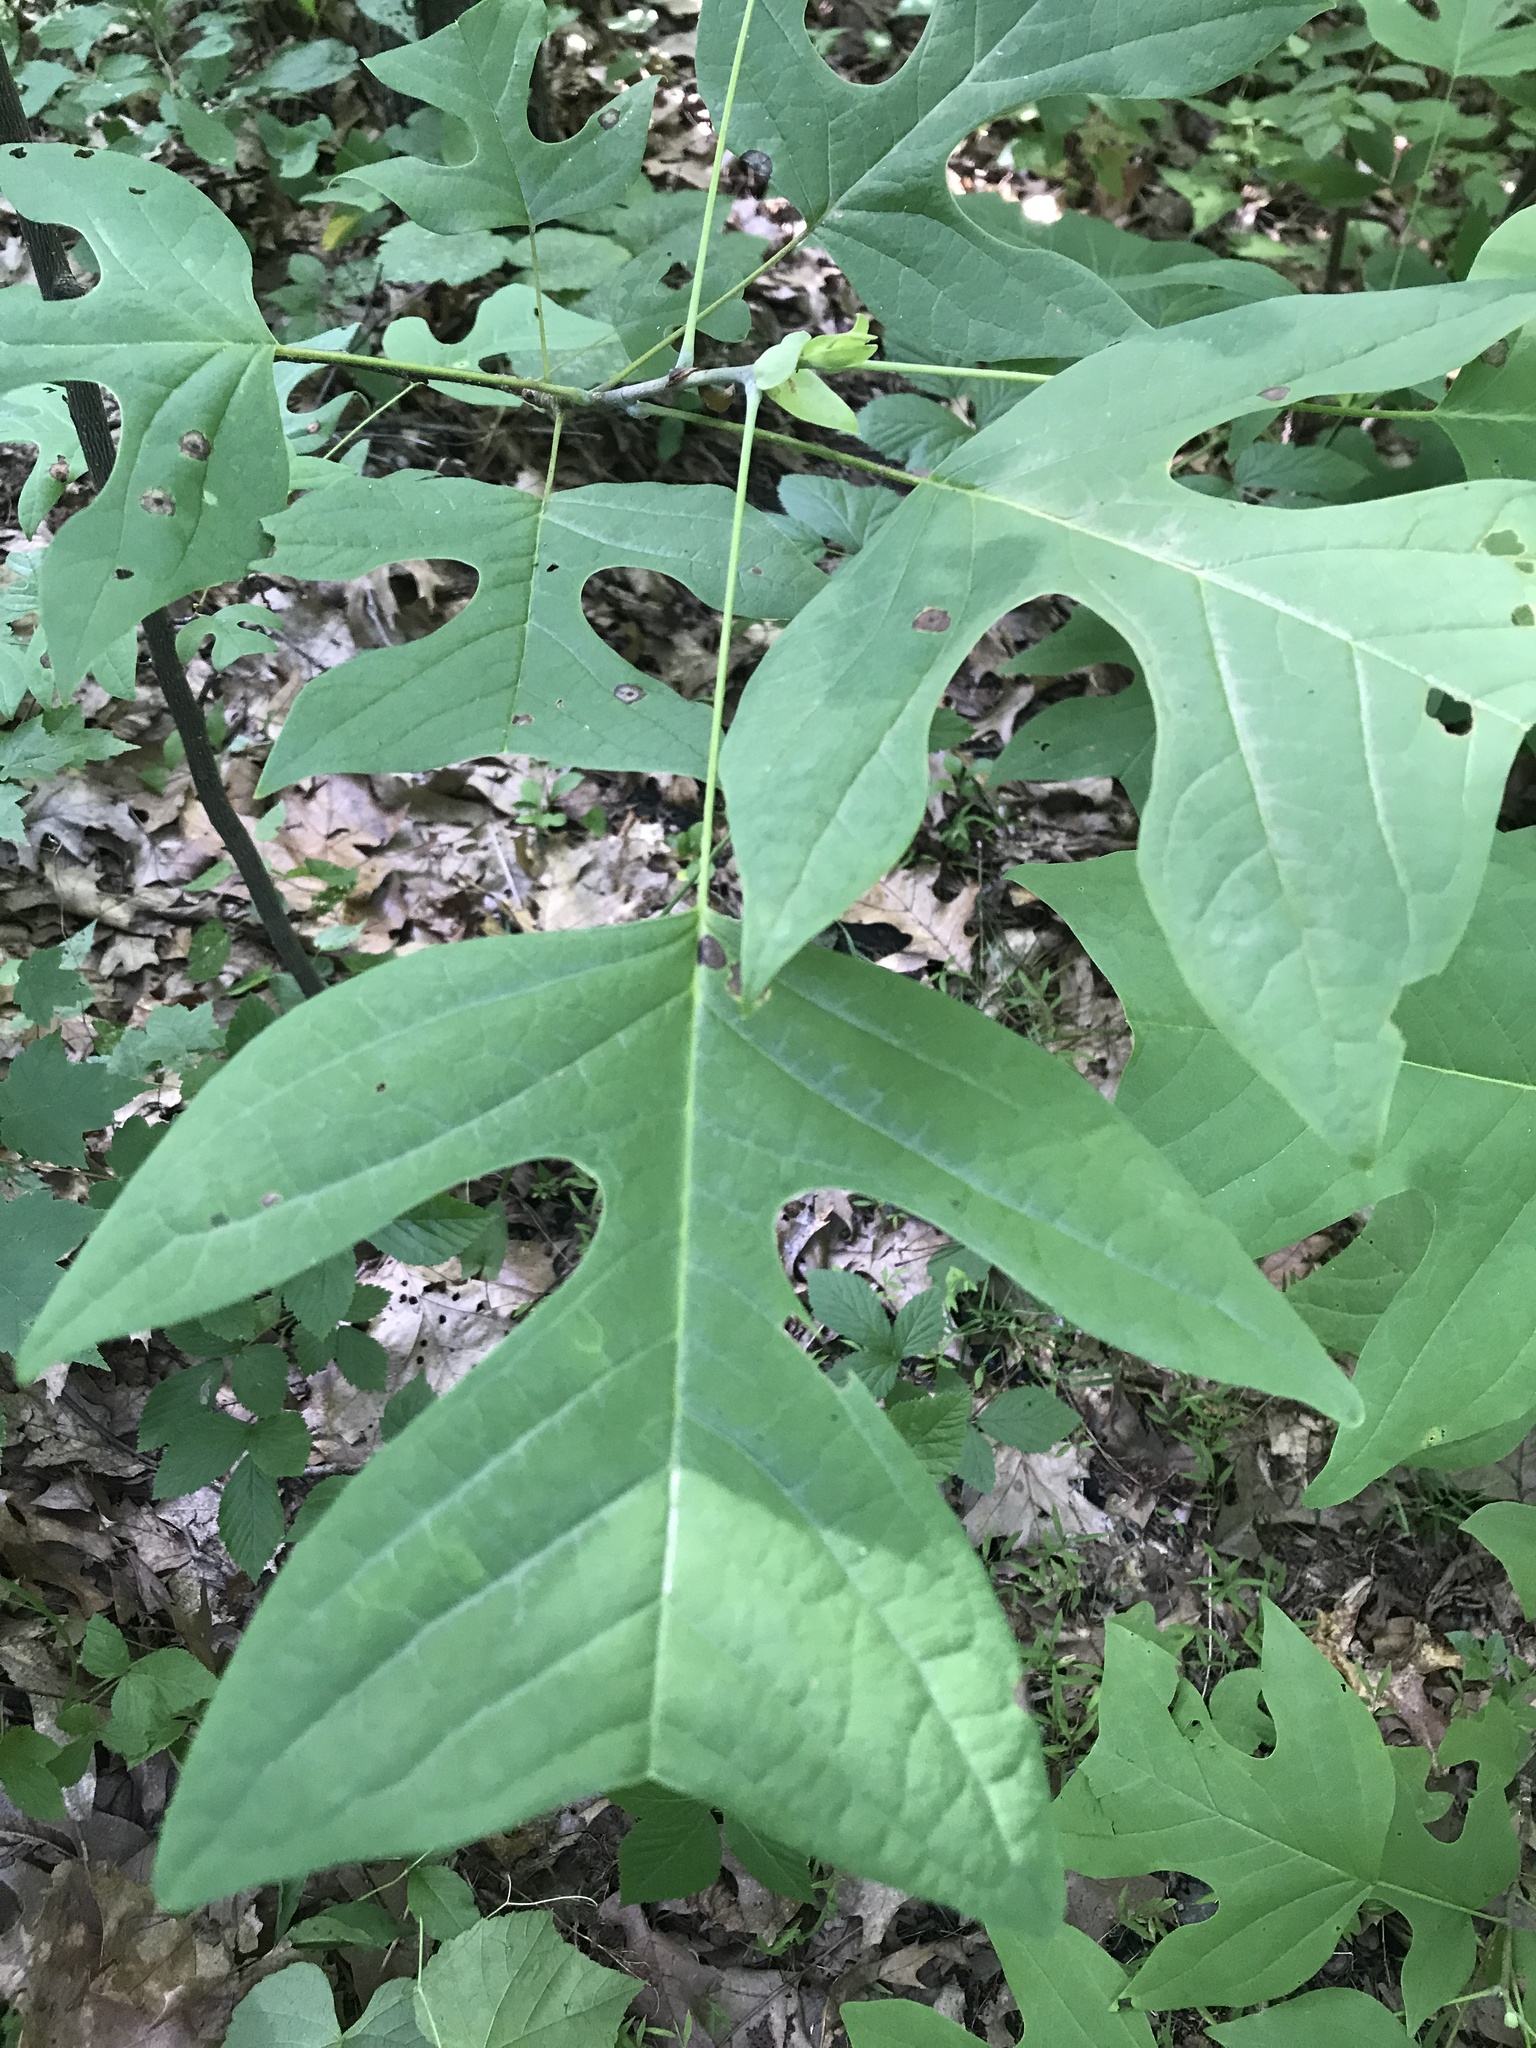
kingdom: Plantae
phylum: Tracheophyta
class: Magnoliopsida
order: Magnoliales
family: Magnoliaceae
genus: Liriodendron
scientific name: Liriodendron tulipifera
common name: Tulip tree
